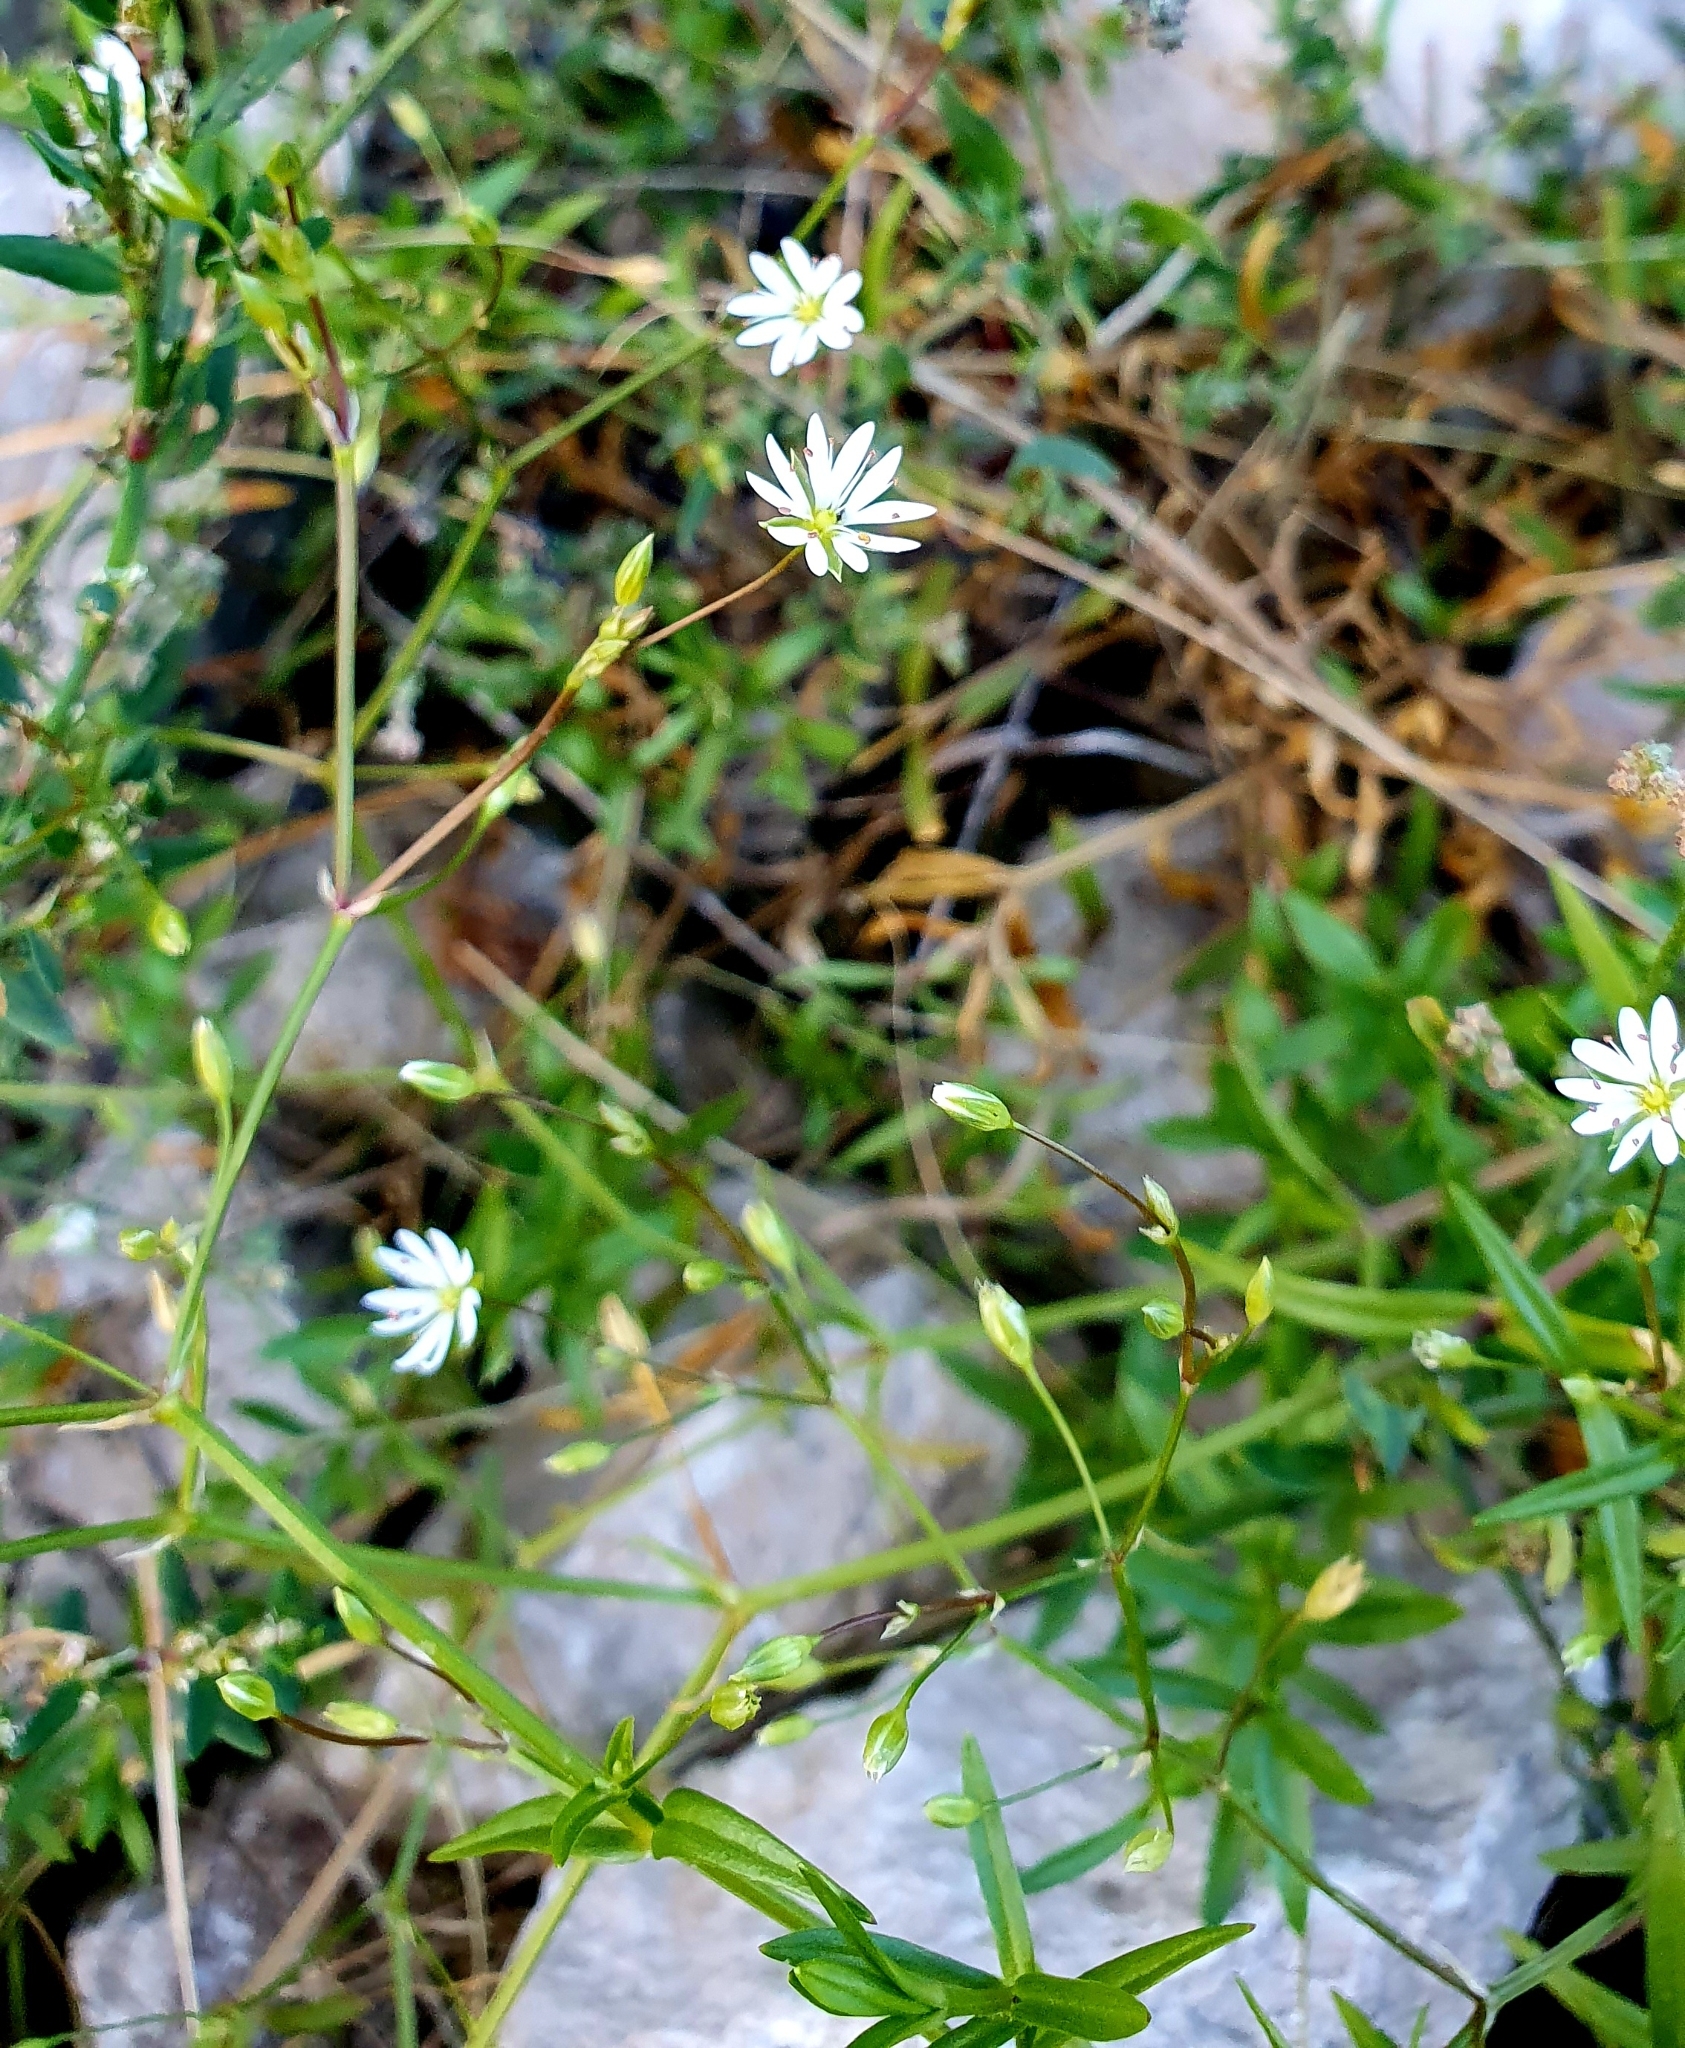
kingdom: Plantae
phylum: Tracheophyta
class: Magnoliopsida
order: Caryophyllales
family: Caryophyllaceae
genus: Stellaria
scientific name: Stellaria graminea
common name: Grass-like starwort
